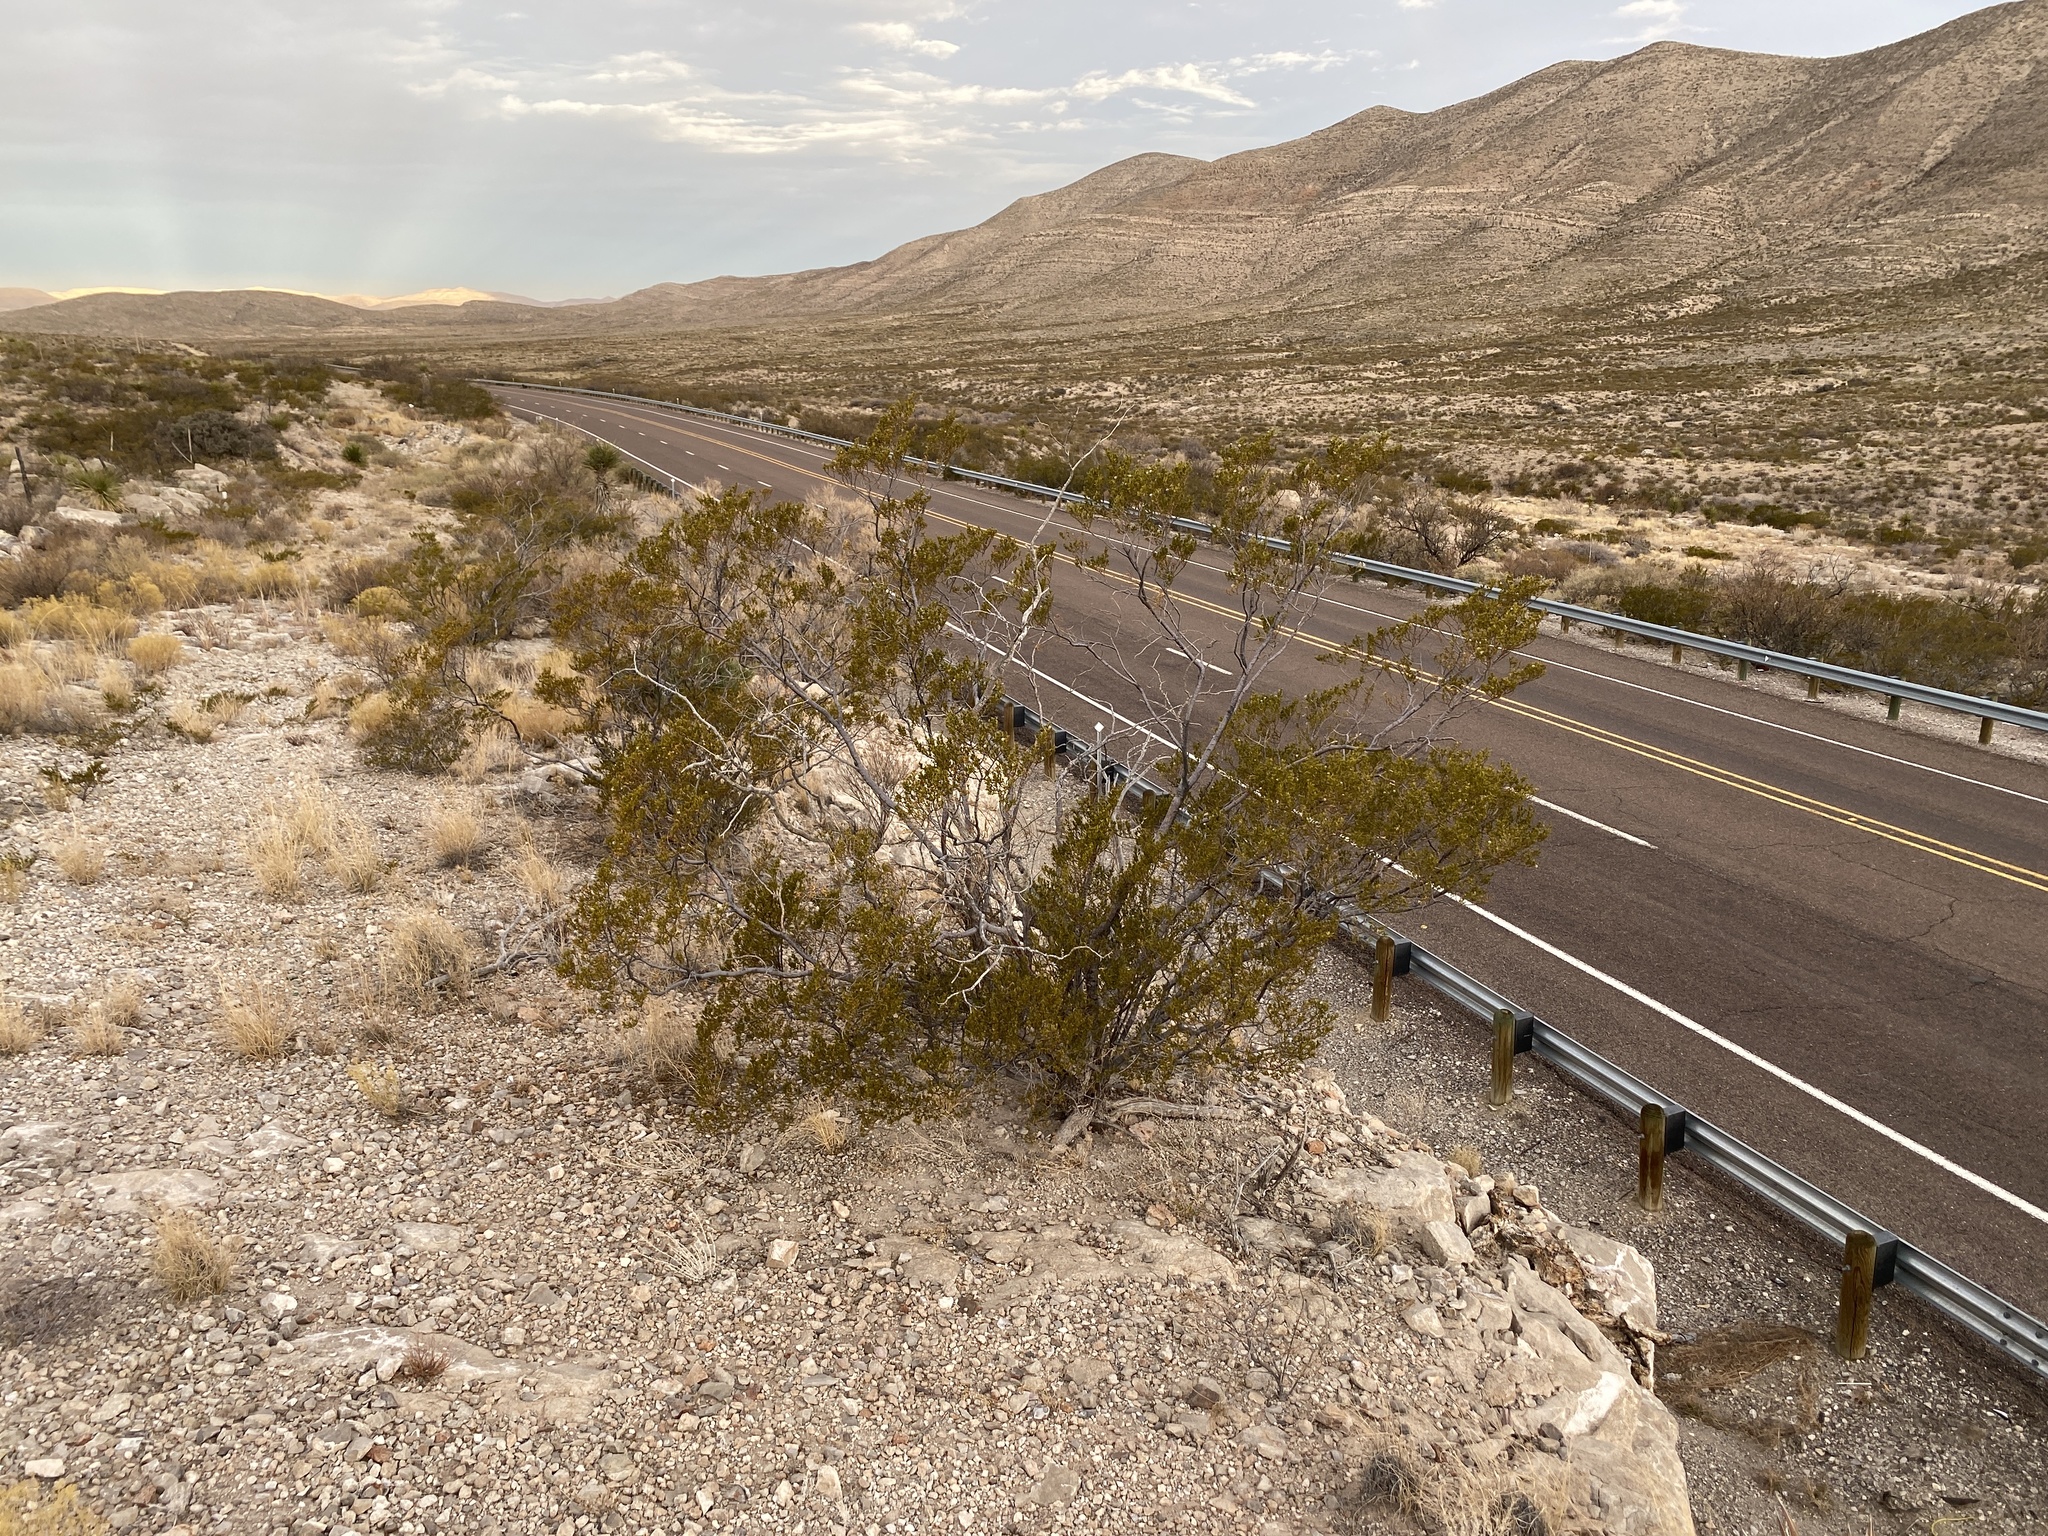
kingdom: Plantae
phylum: Tracheophyta
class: Magnoliopsida
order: Zygophyllales
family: Zygophyllaceae
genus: Larrea
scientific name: Larrea tridentata
